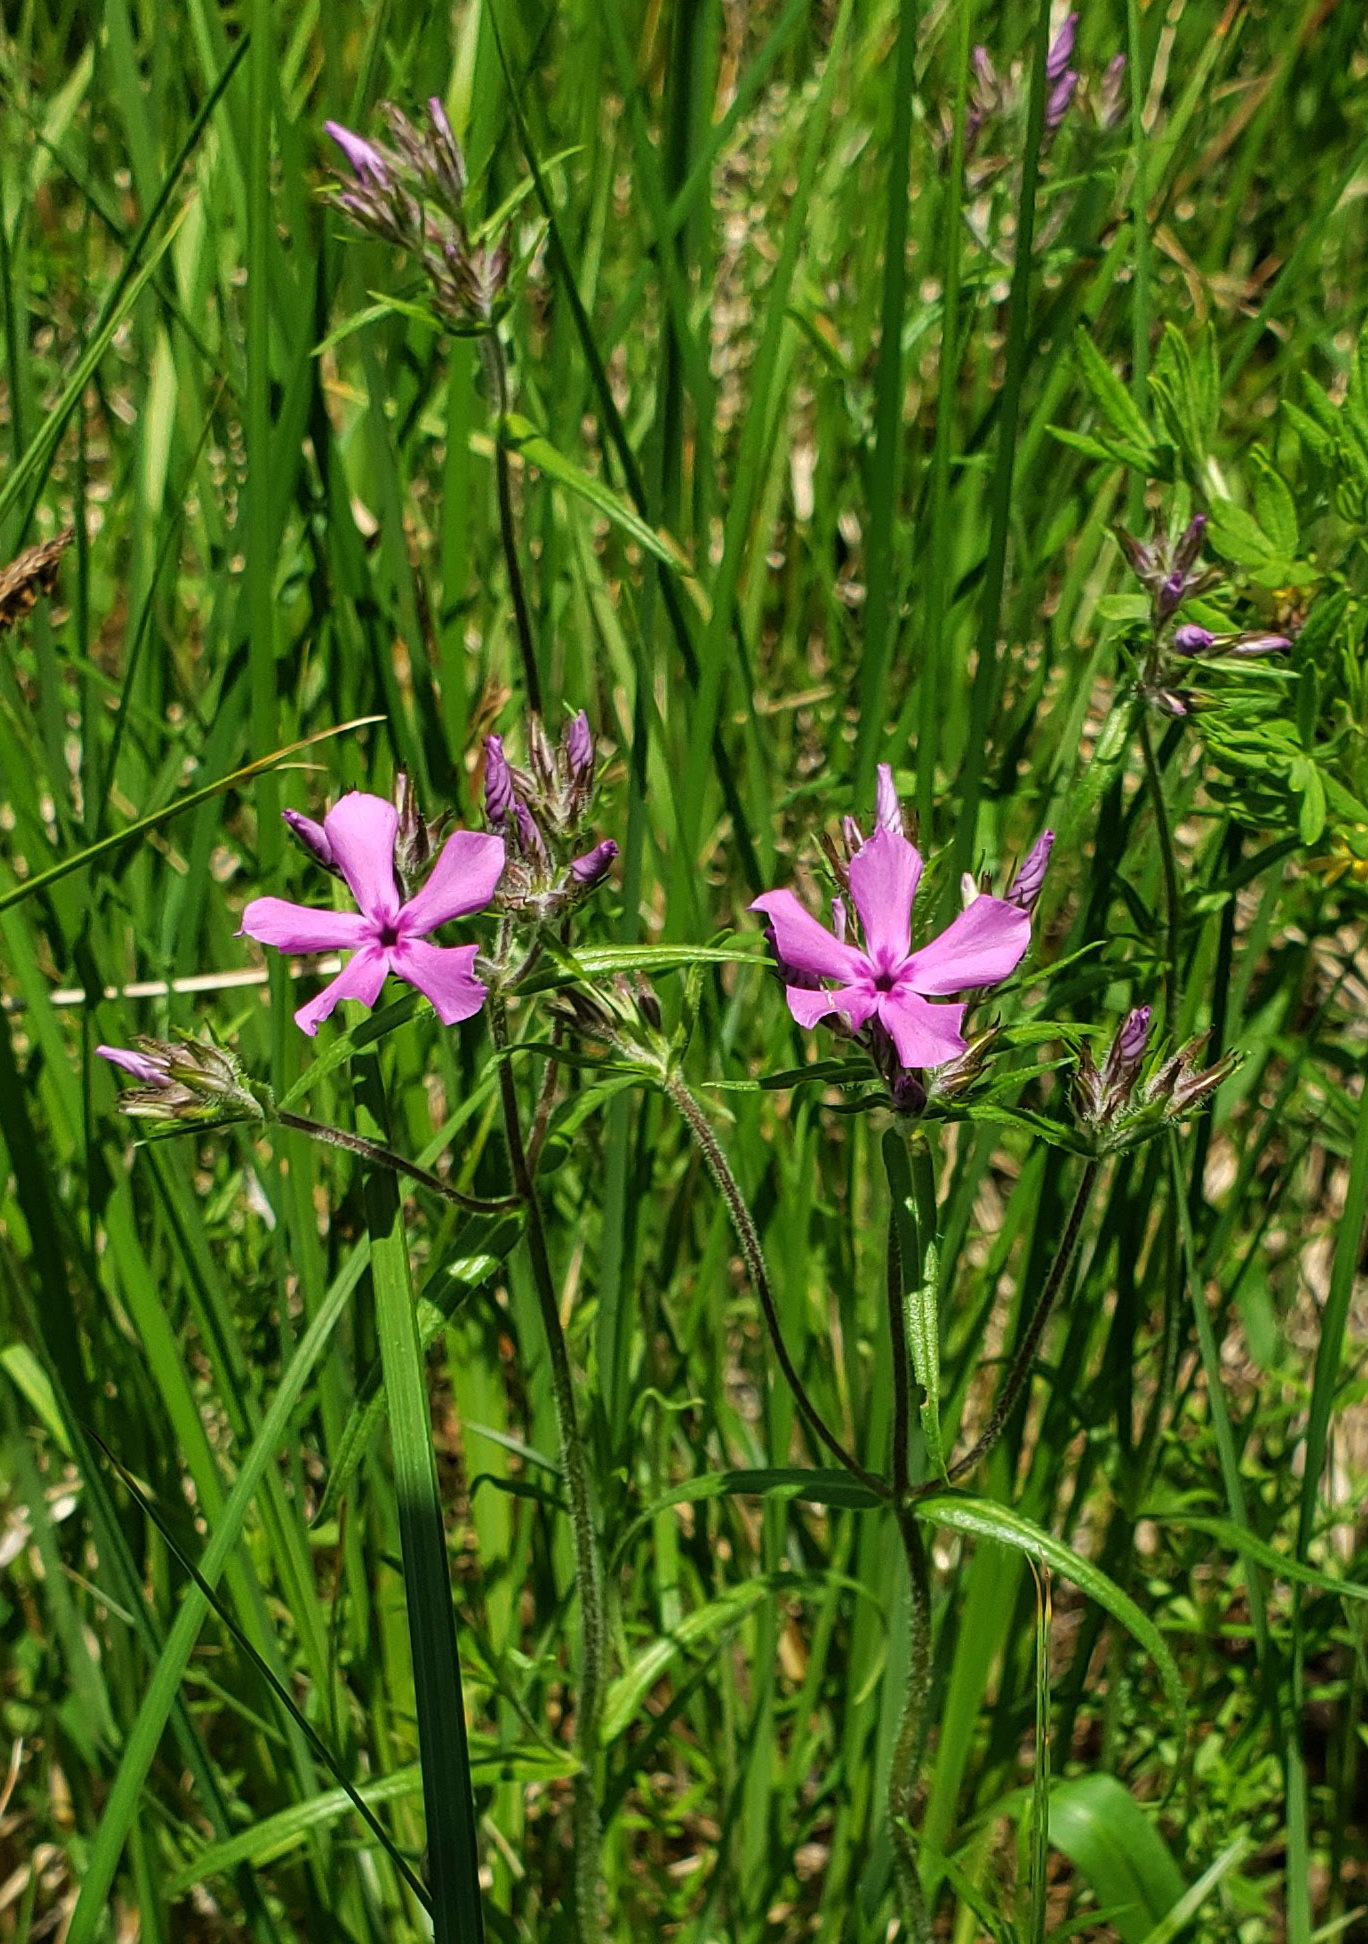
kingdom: Plantae
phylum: Tracheophyta
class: Magnoliopsida
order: Ericales
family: Polemoniaceae
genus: Phlox
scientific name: Phlox pilosa
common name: Prairie phlox
